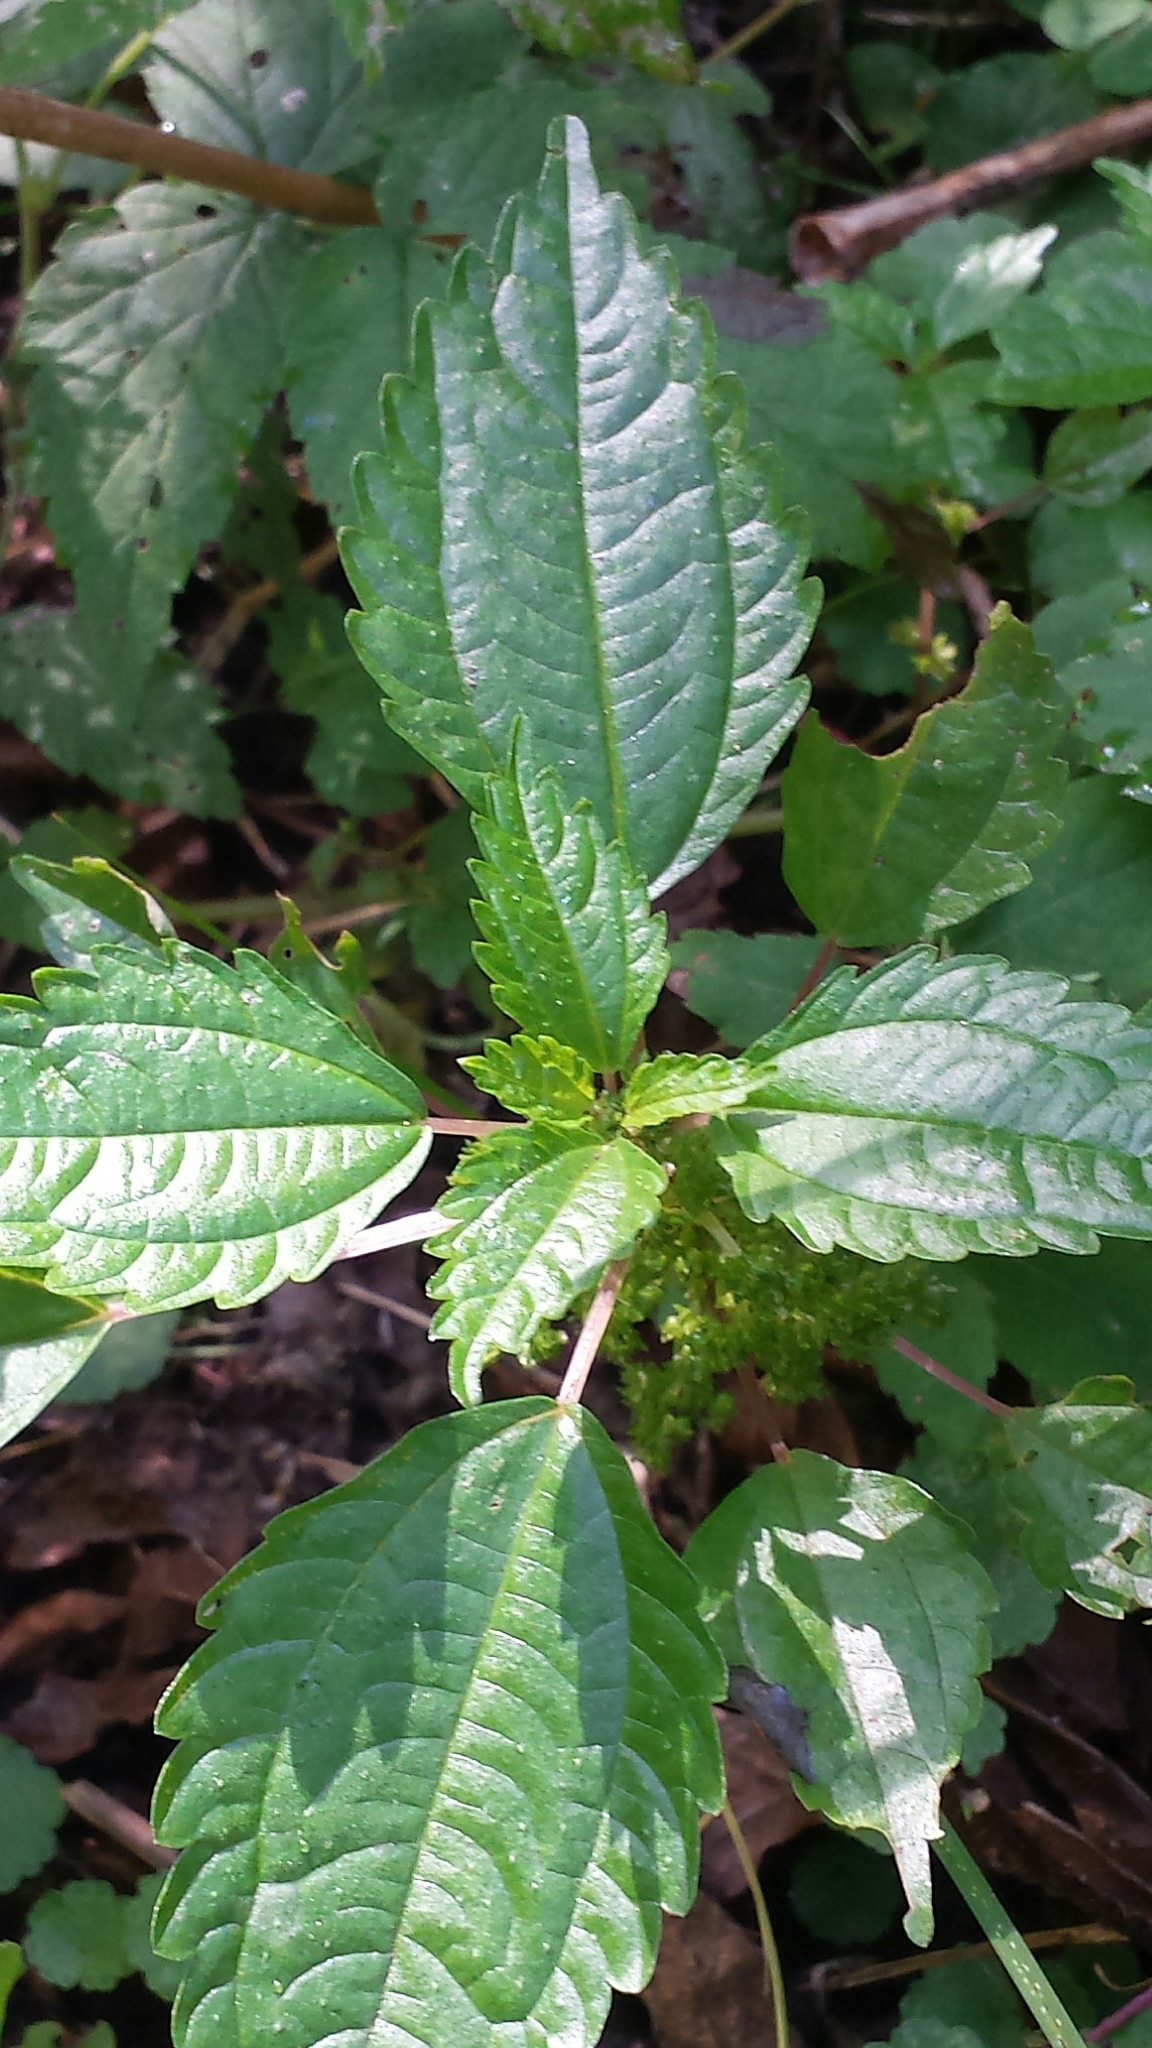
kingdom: Plantae
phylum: Tracheophyta
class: Magnoliopsida
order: Rosales
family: Urticaceae
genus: Pilea
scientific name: Pilea pumila
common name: Clearweed
